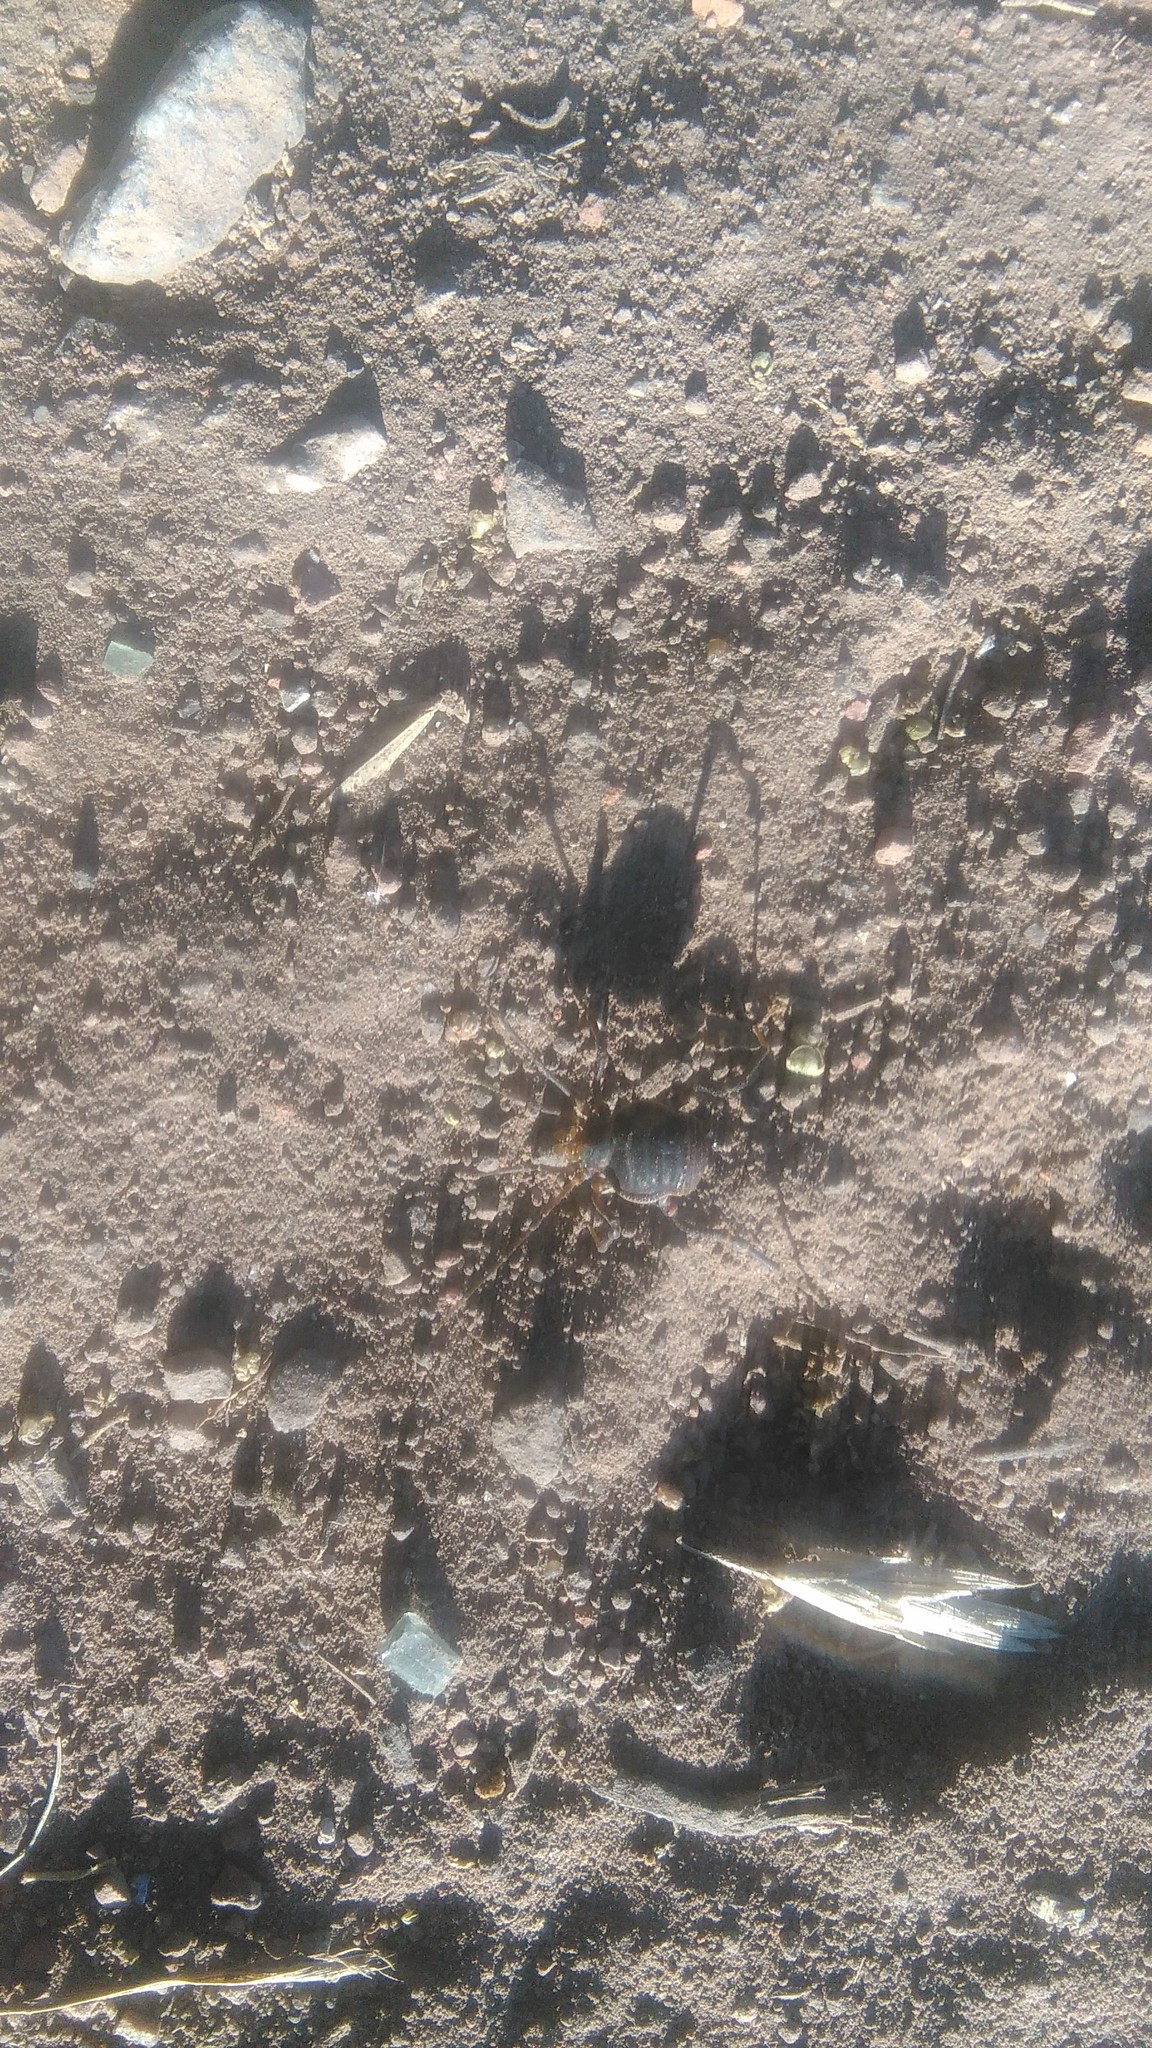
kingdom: Animalia
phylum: Arthropoda
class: Arachnida
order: Opiliones
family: Gonyleptidae
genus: Acanthopachylus
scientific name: Acanthopachylus robustus
